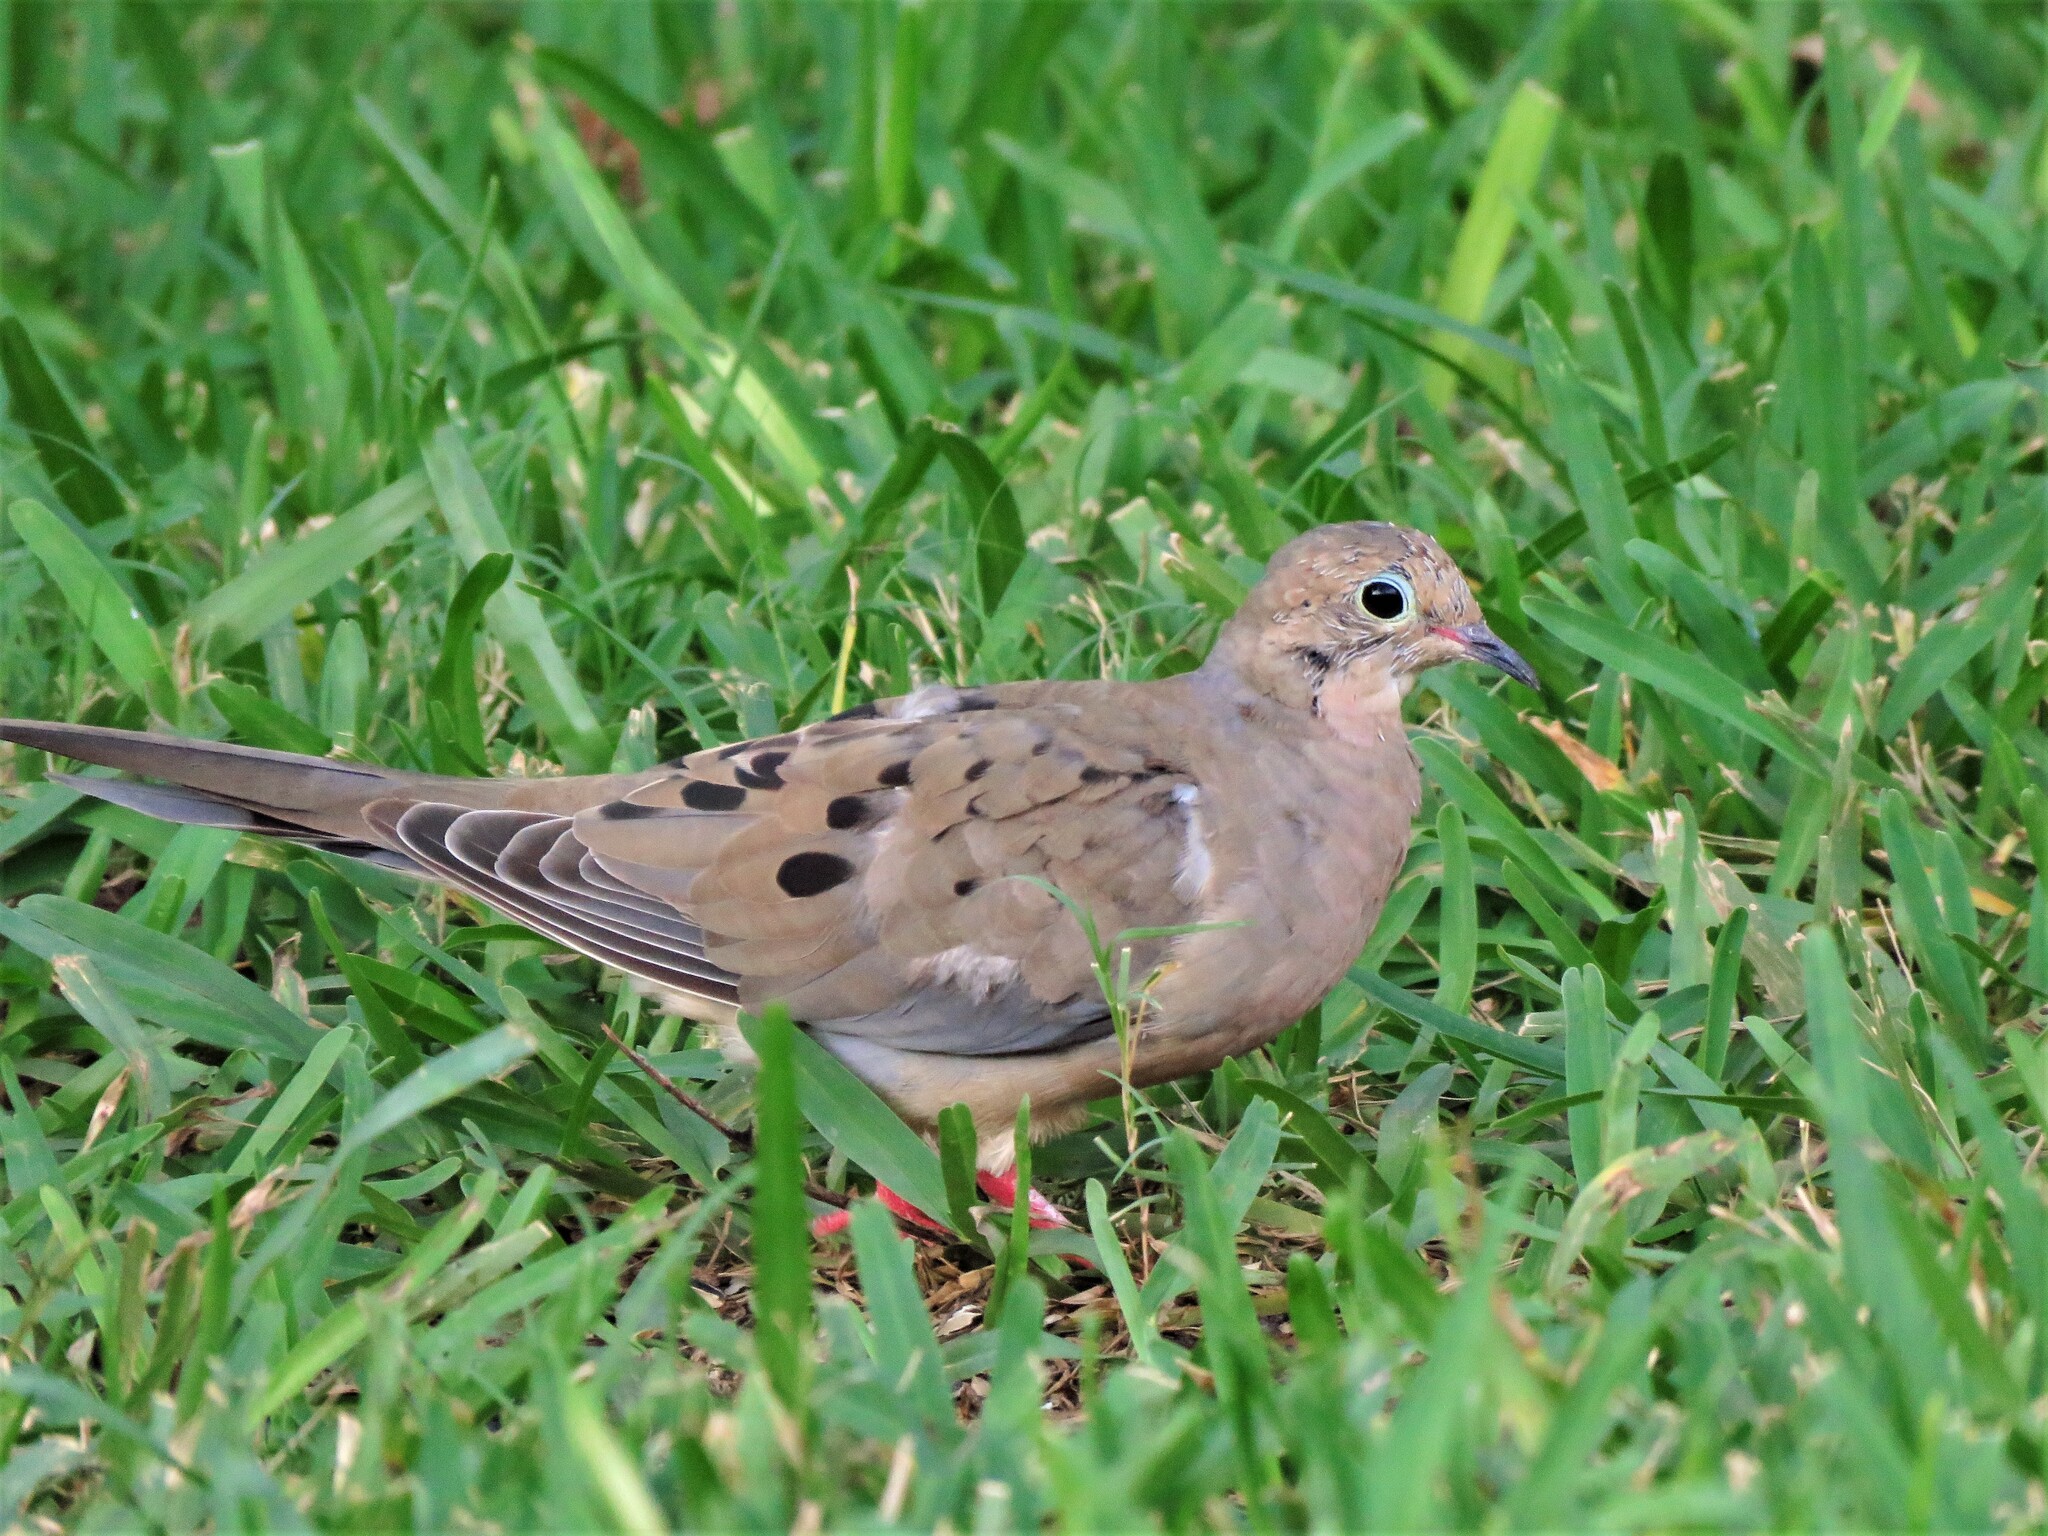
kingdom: Animalia
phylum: Chordata
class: Aves
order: Columbiformes
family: Columbidae
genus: Zenaida
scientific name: Zenaida macroura
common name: Mourning dove
